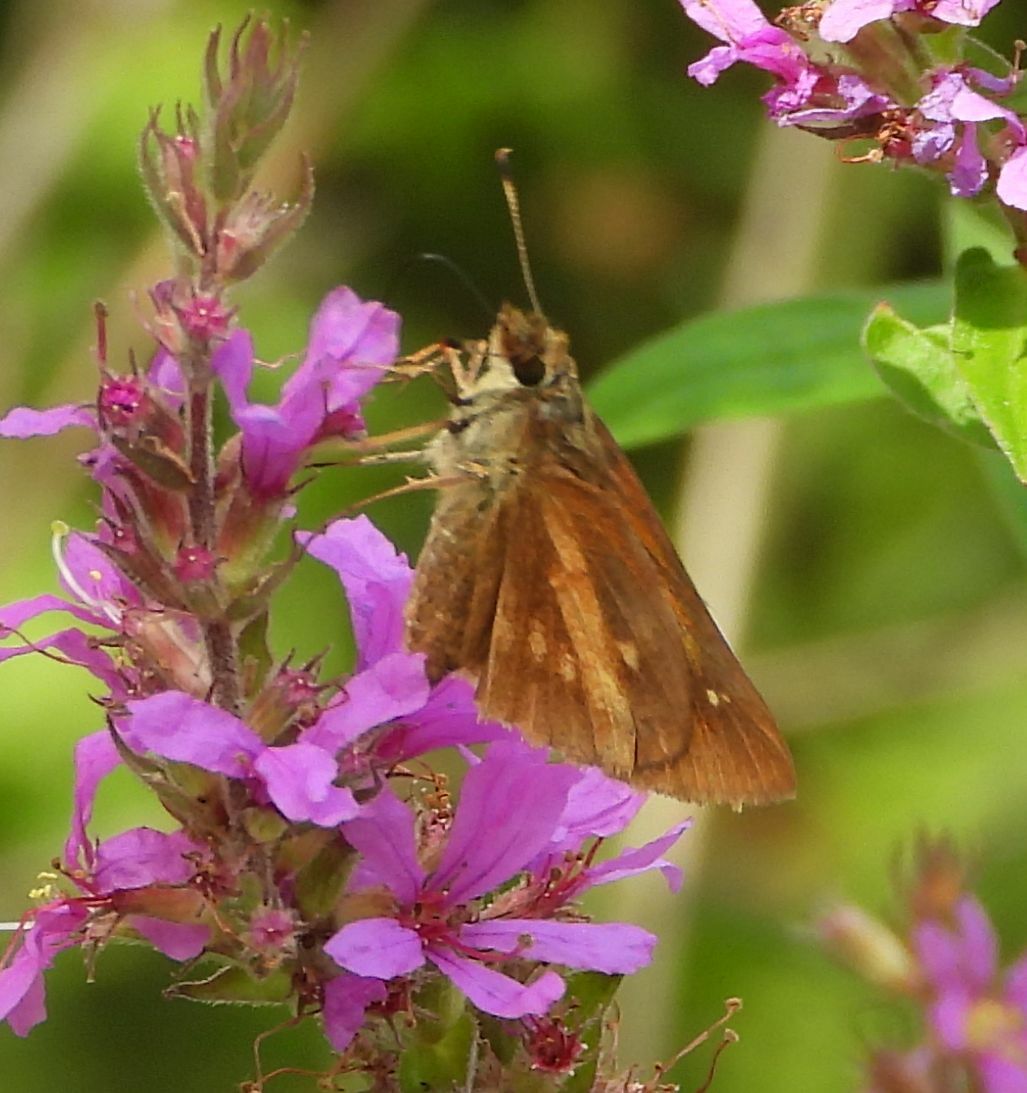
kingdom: Animalia
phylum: Arthropoda
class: Insecta
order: Lepidoptera
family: Hesperiidae
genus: Poanes
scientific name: Poanes viator
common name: Broad-winged skipper
